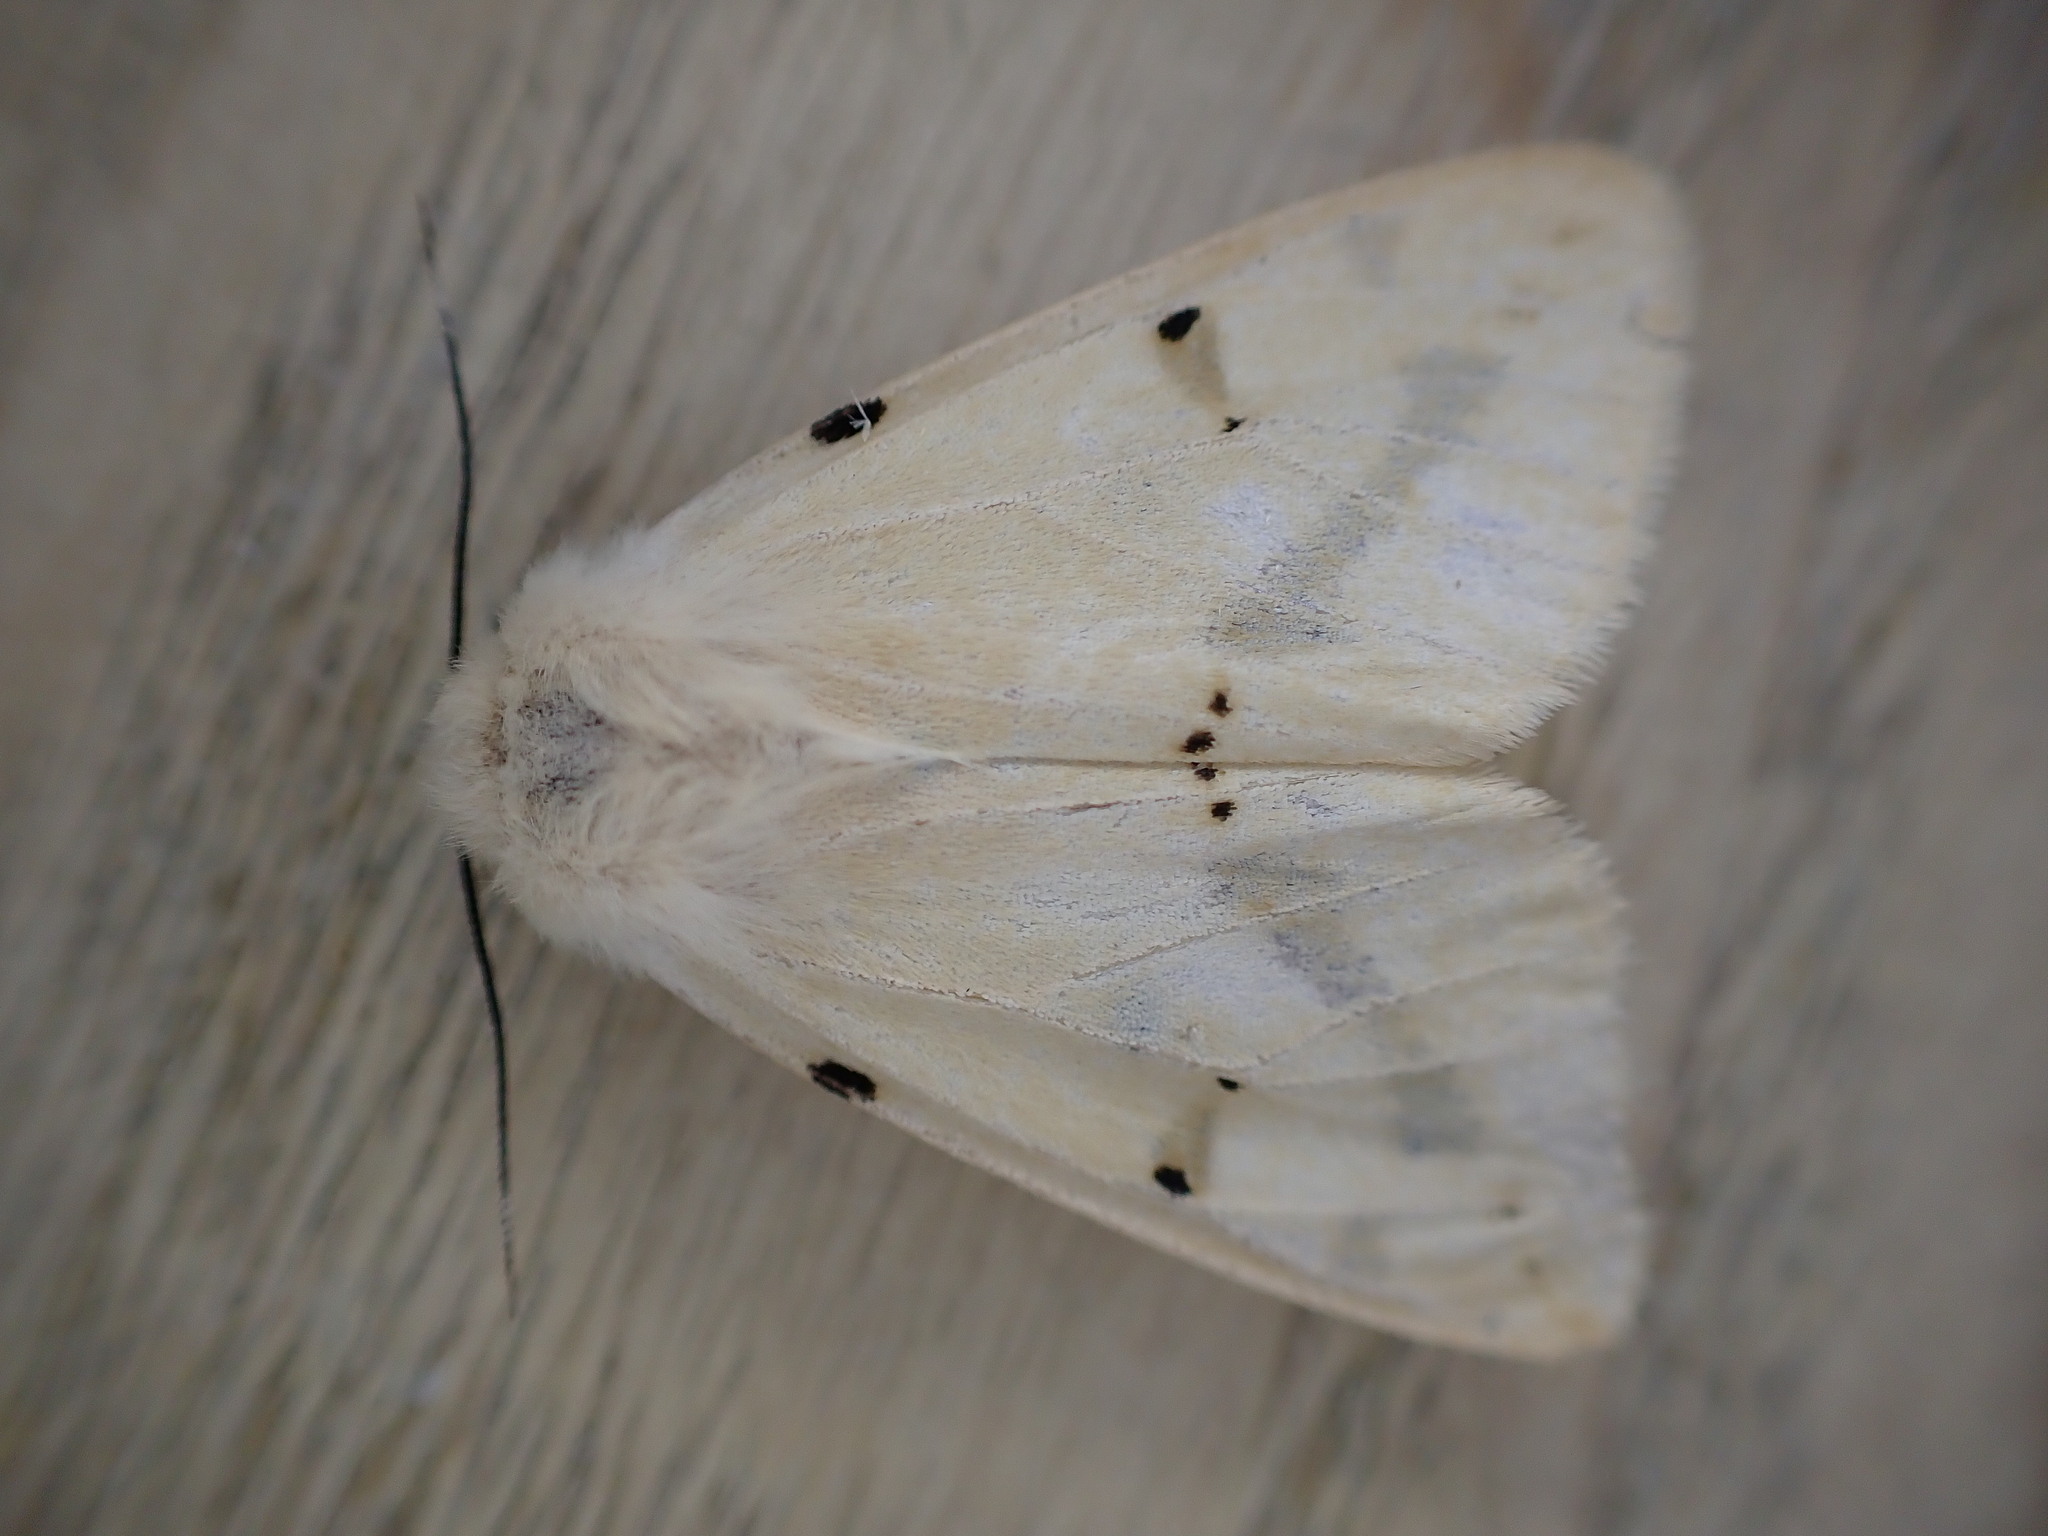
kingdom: Animalia
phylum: Arthropoda
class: Insecta
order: Lepidoptera
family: Erebidae
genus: Spilarctia
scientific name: Spilarctia lutea
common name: Buff ermine
